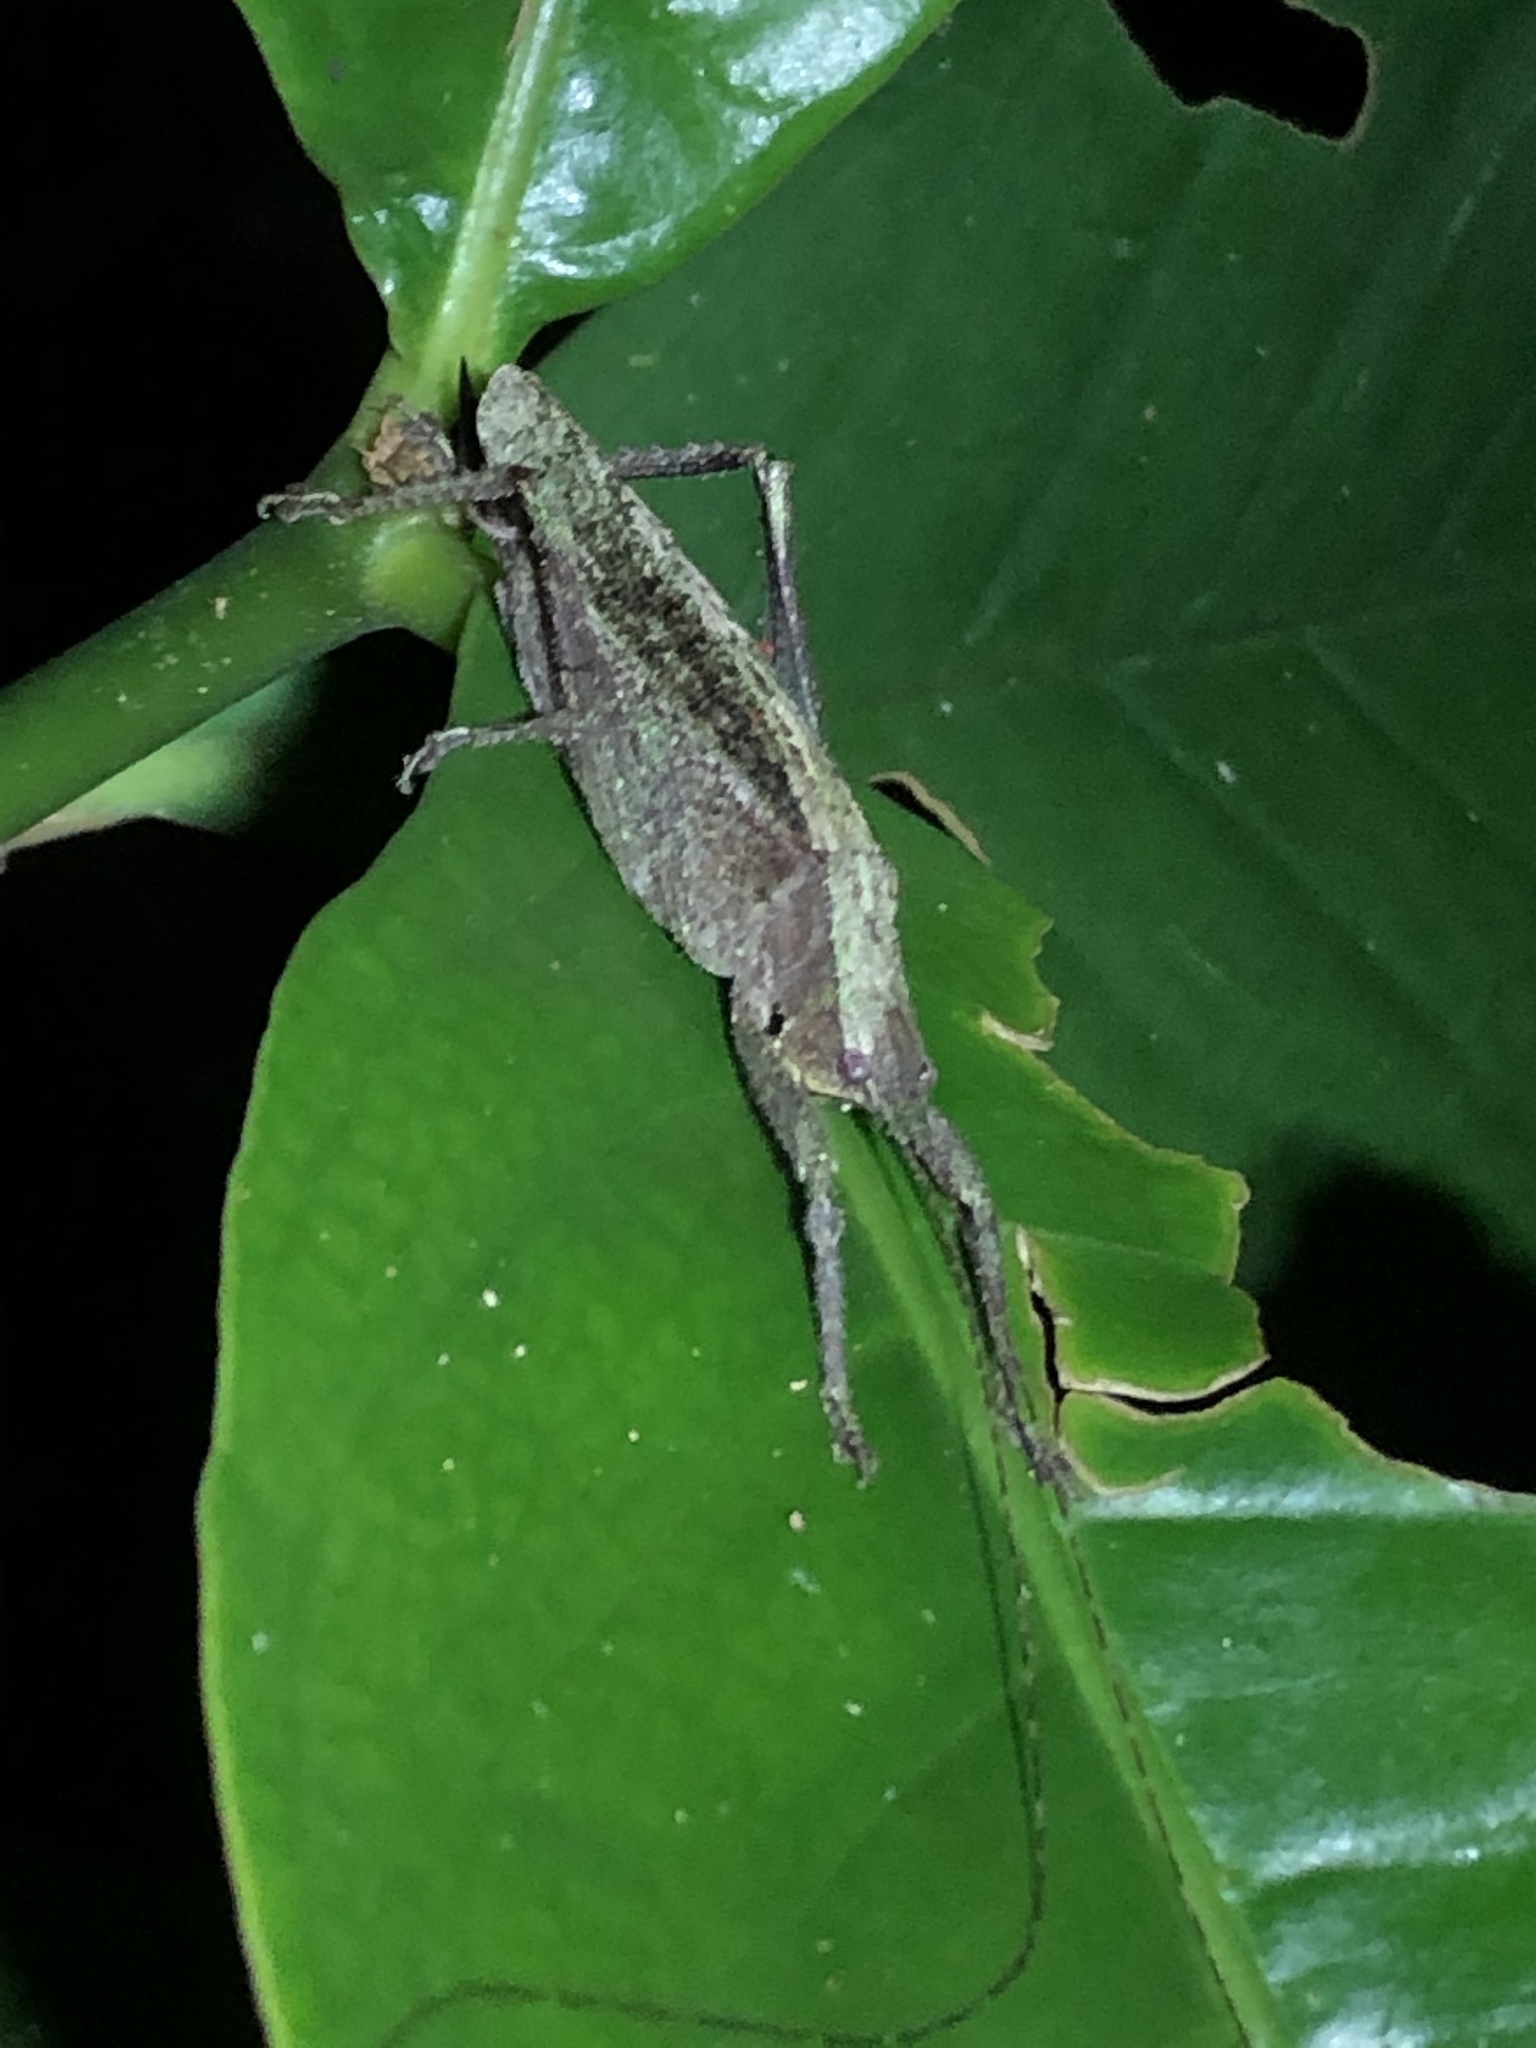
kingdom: Animalia
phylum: Arthropoda
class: Insecta
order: Orthoptera
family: Tettigoniidae
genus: Pedinothorax
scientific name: Pedinothorax exiguus
